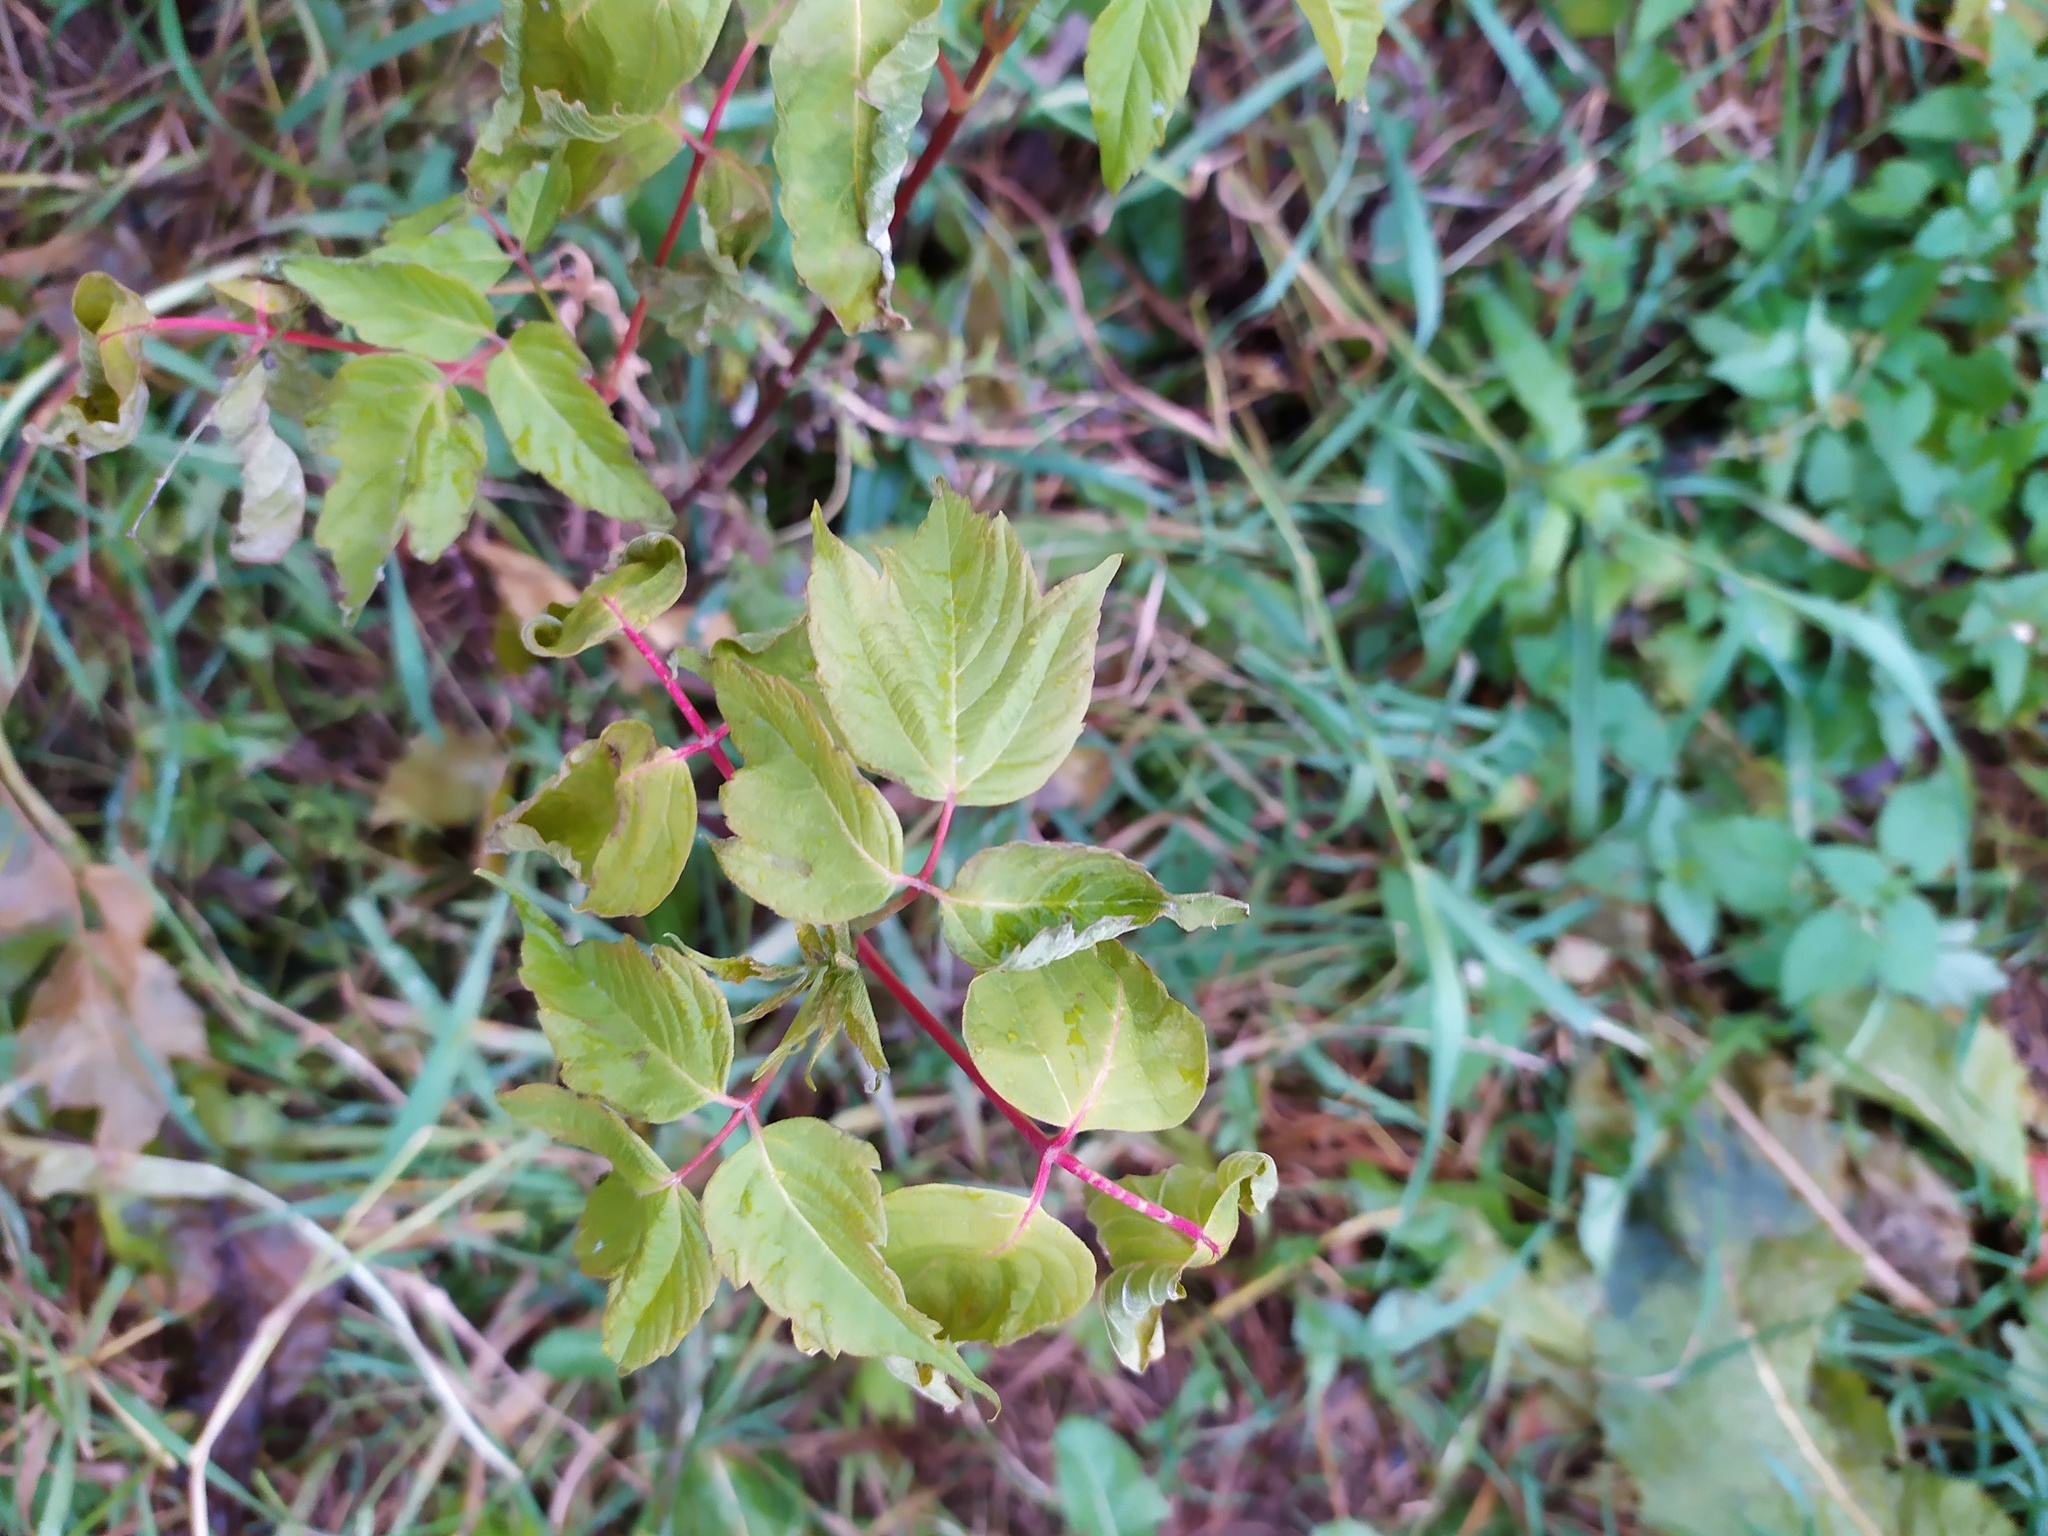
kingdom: Plantae
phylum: Tracheophyta
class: Magnoliopsida
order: Sapindales
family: Sapindaceae
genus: Acer
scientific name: Acer negundo
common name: Ashleaf maple
